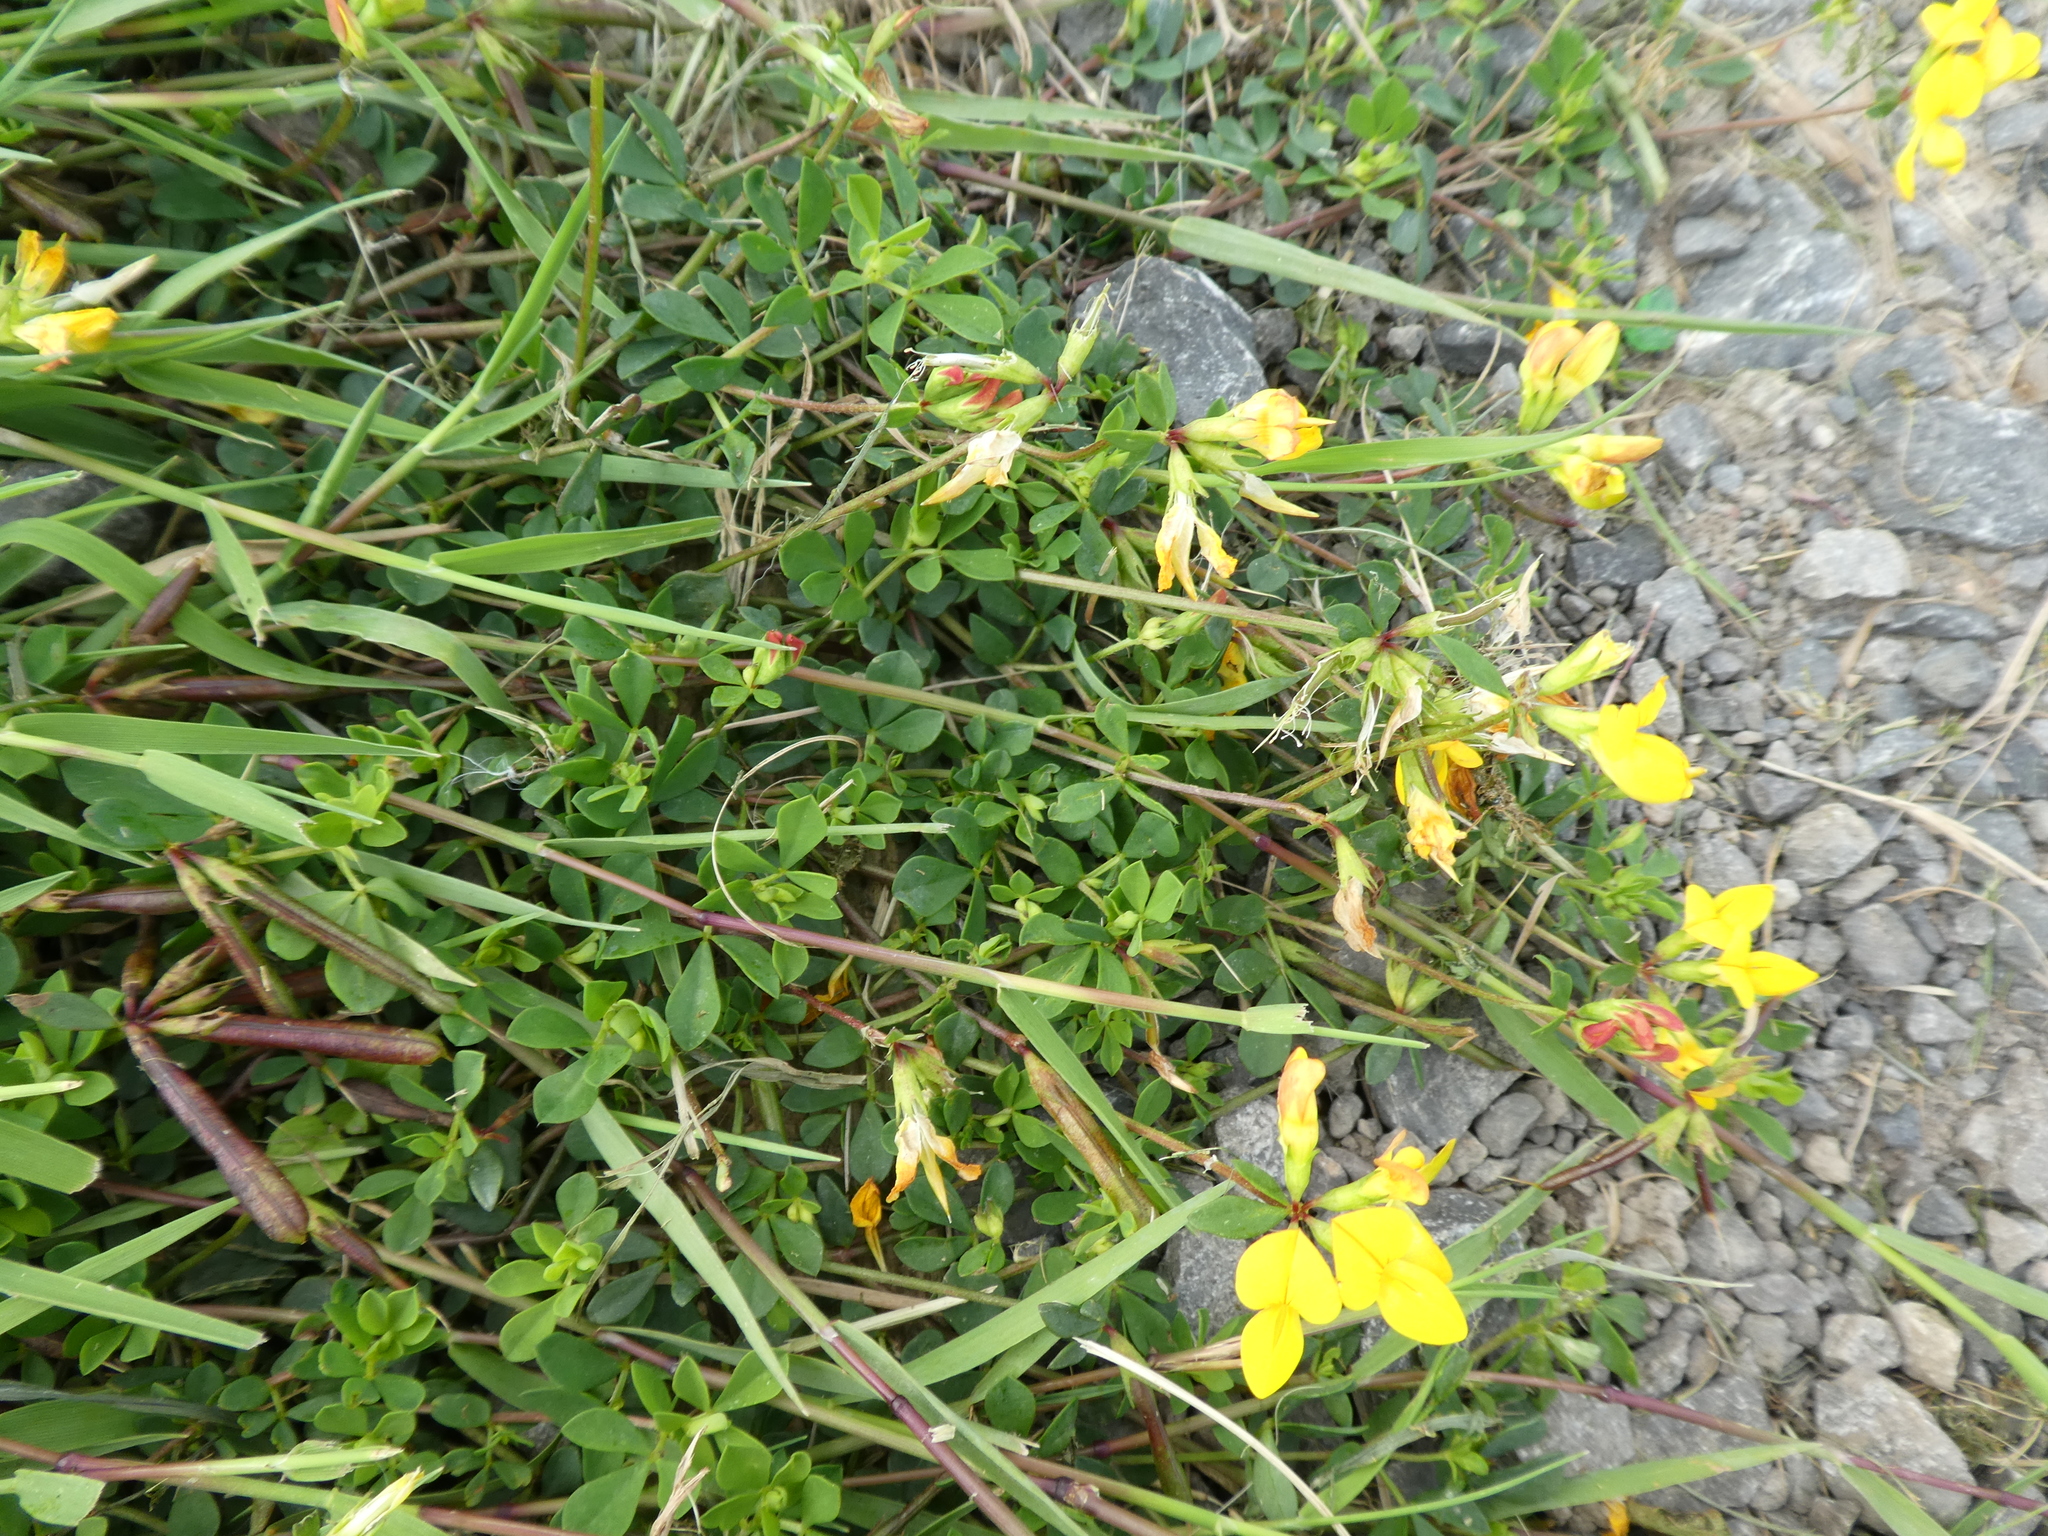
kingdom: Plantae
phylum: Tracheophyta
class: Magnoliopsida
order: Fabales
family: Fabaceae
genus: Lotus
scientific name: Lotus corniculatus
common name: Common bird's-foot-trefoil
